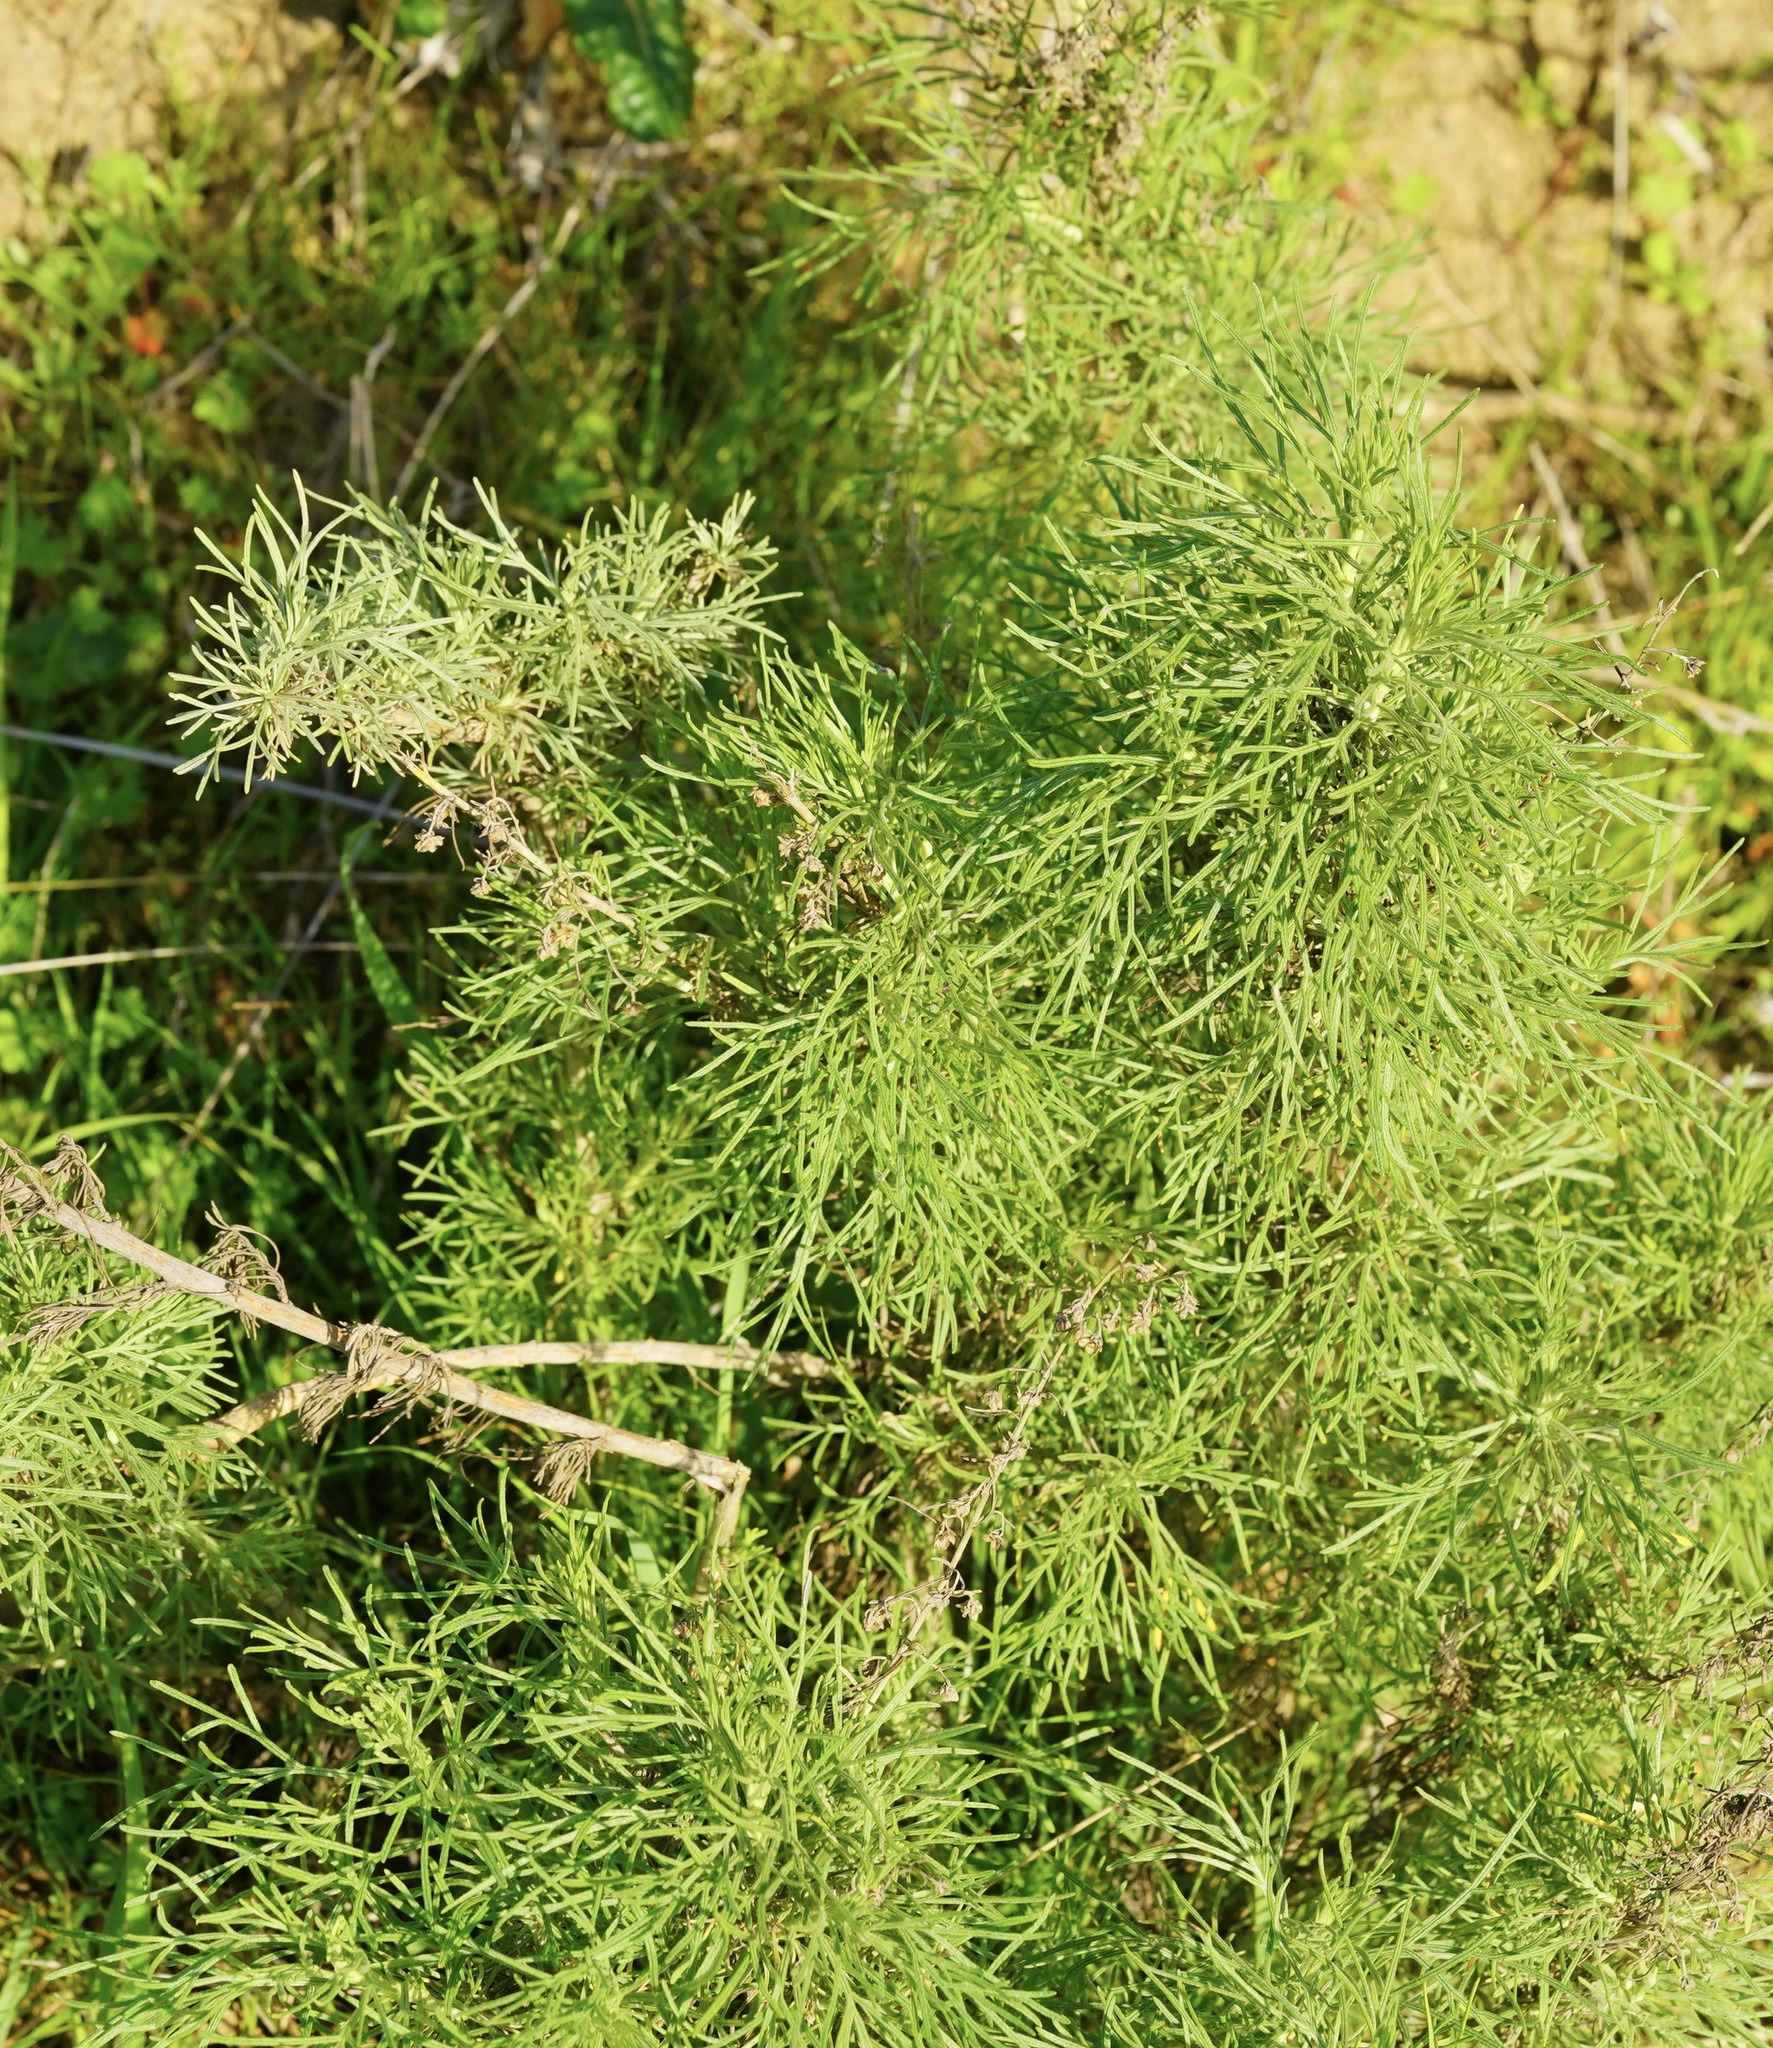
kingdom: Plantae
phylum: Tracheophyta
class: Magnoliopsida
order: Asterales
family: Asteraceae
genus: Artemisia
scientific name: Artemisia californica
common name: California sagebrush
